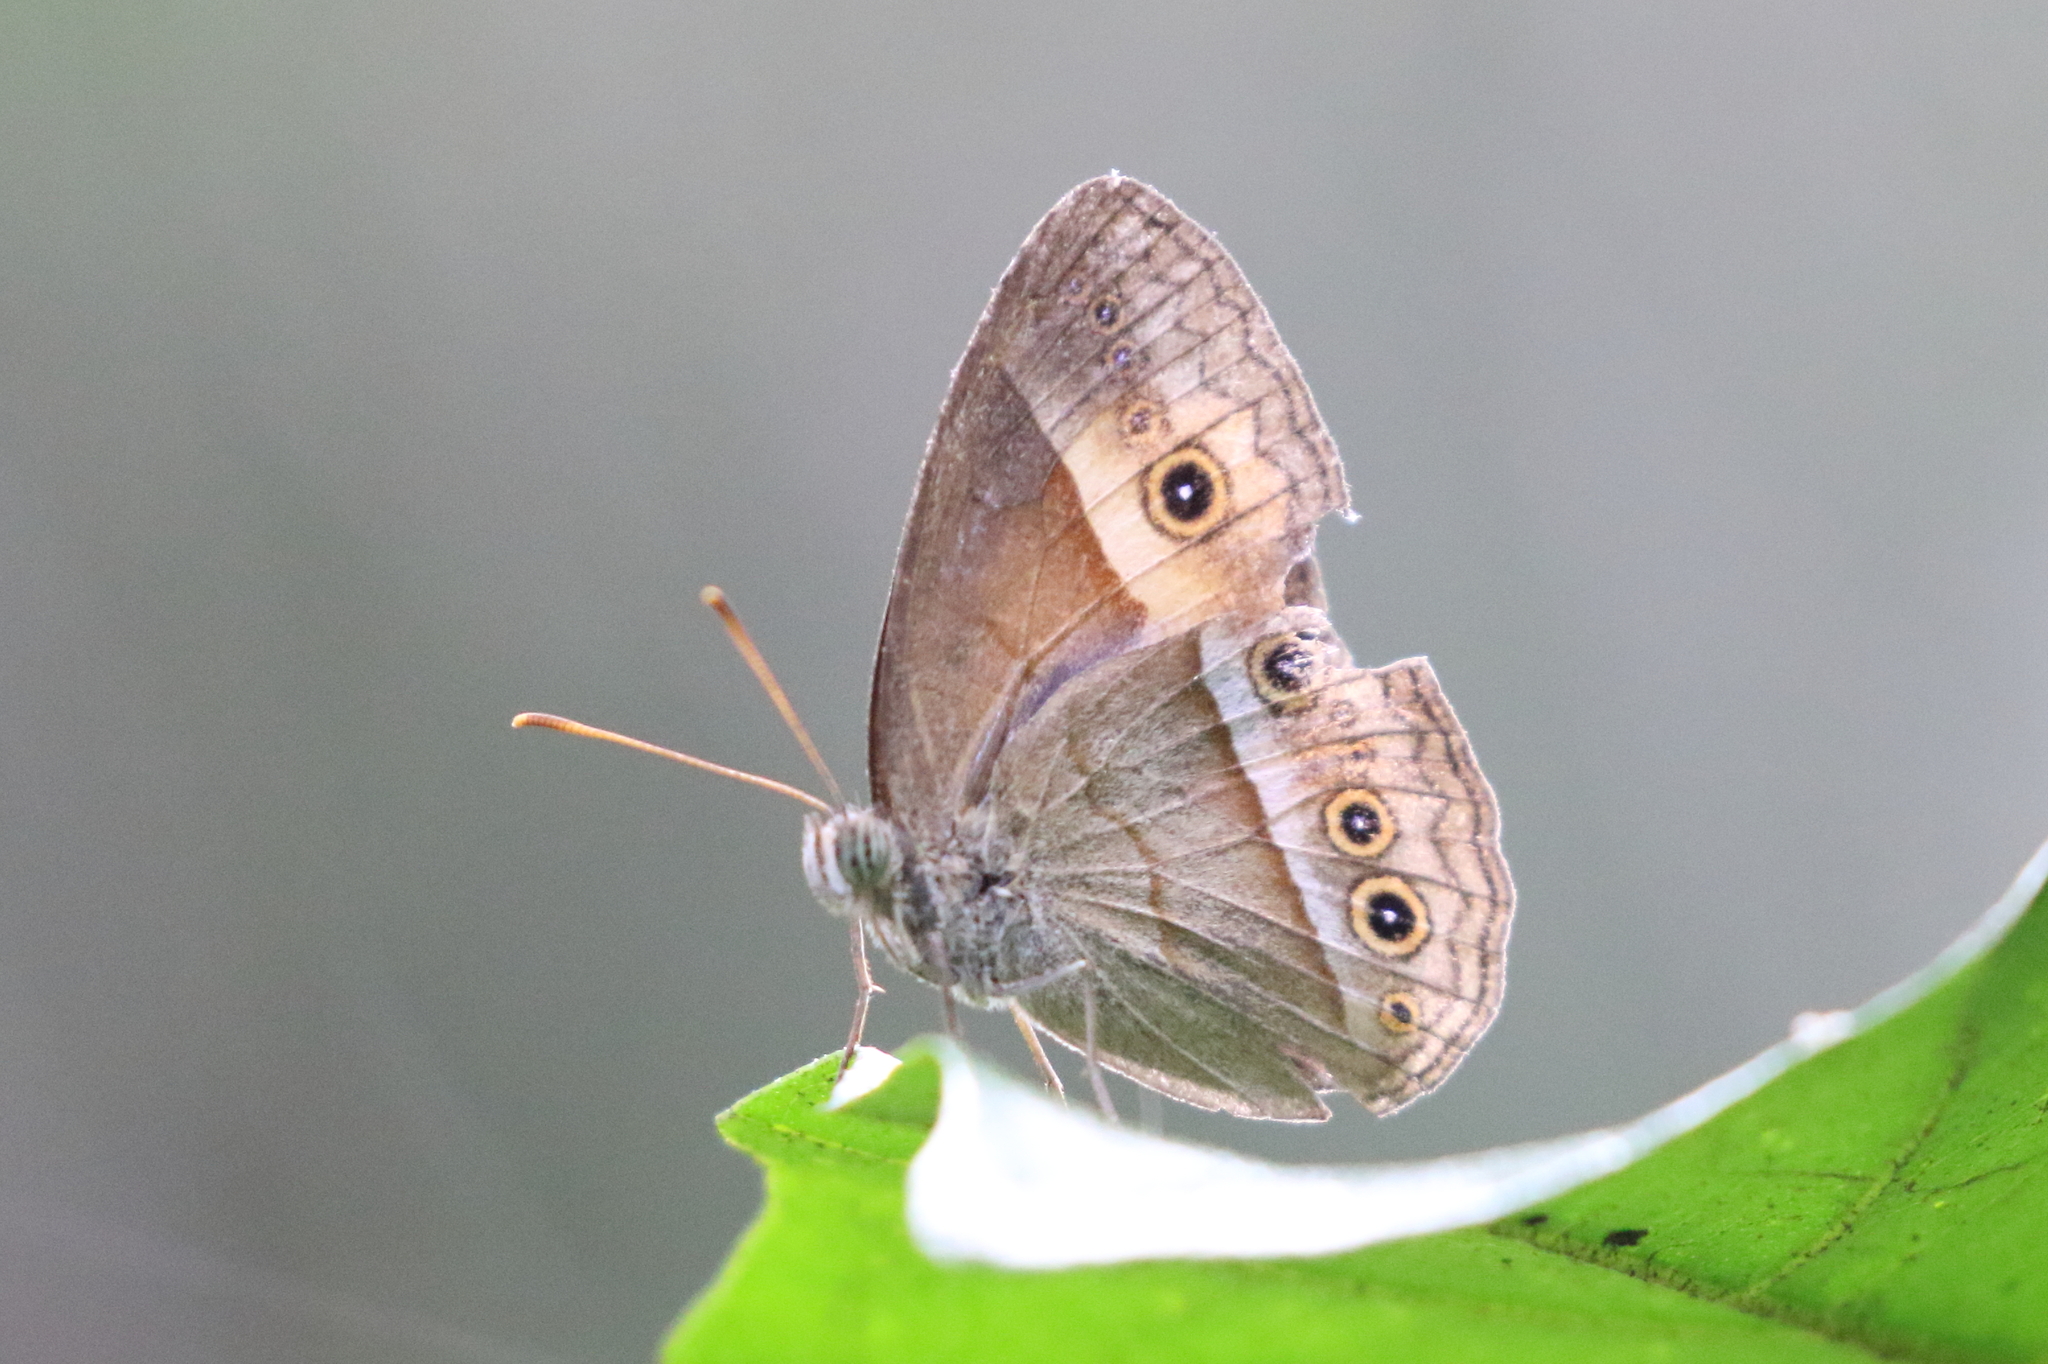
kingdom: Animalia
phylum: Arthropoda
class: Insecta
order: Lepidoptera
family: Nymphalidae
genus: Mycalesis
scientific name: Mycalesis terminus
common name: Orange bushbrown
